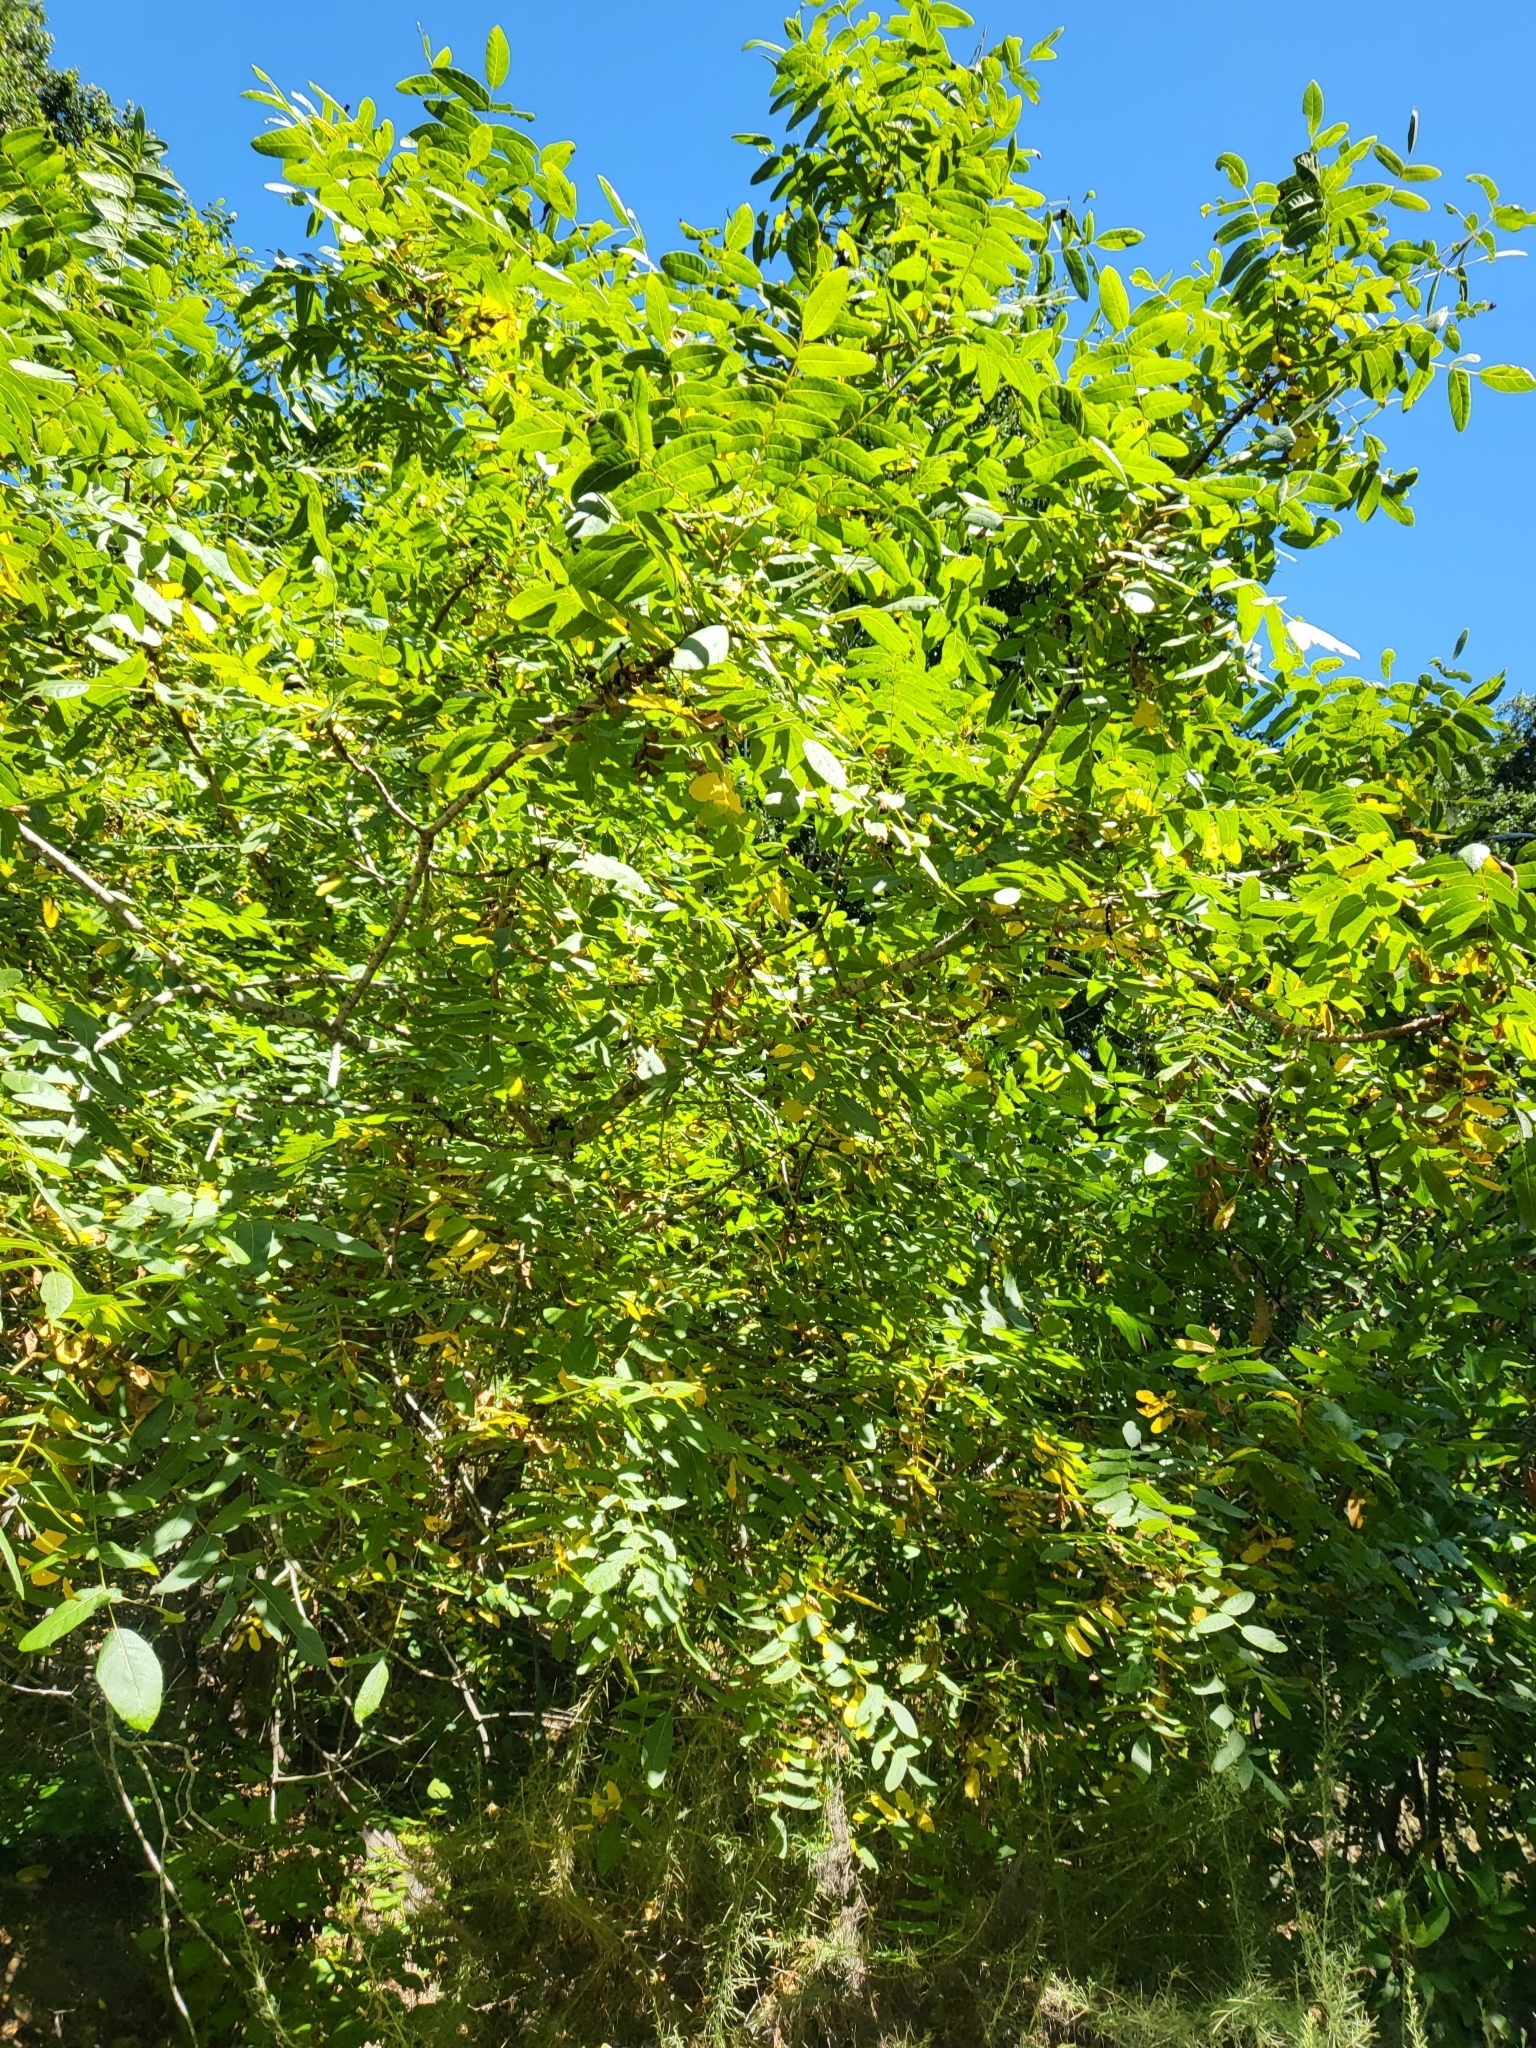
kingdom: Plantae
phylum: Tracheophyta
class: Magnoliopsida
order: Fagales
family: Juglandaceae
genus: Juglans
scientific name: Juglans californica
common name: Southern california black walnut
